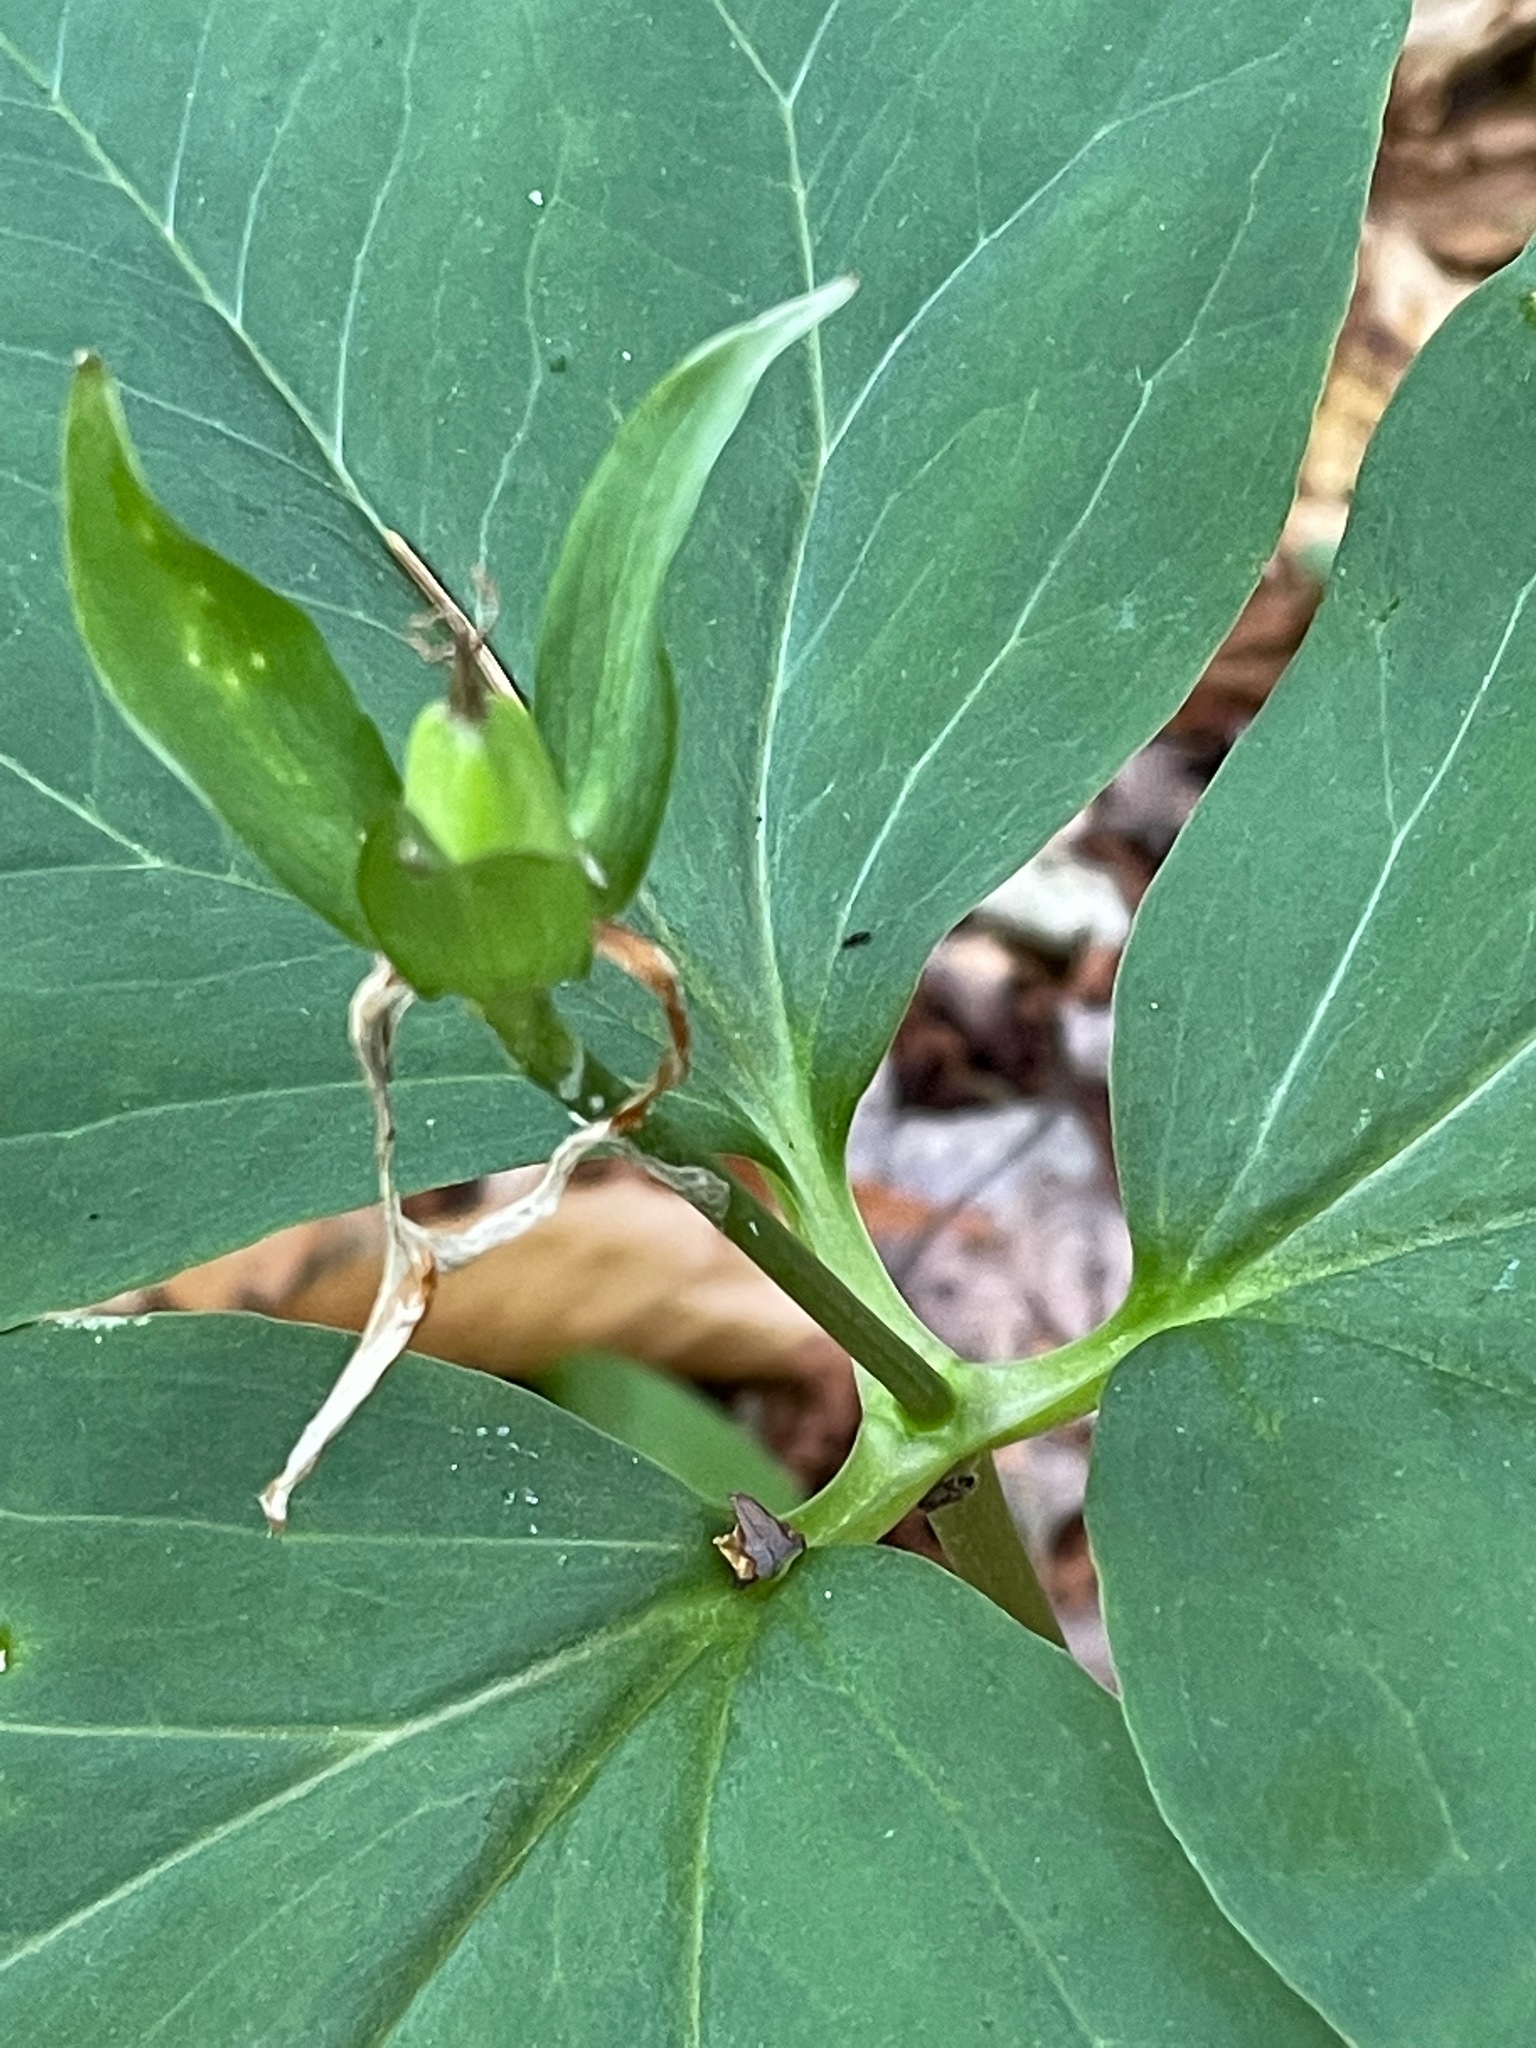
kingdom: Plantae
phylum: Tracheophyta
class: Liliopsida
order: Liliales
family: Melanthiaceae
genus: Trillium
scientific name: Trillium undulatum
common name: Paint trillium
